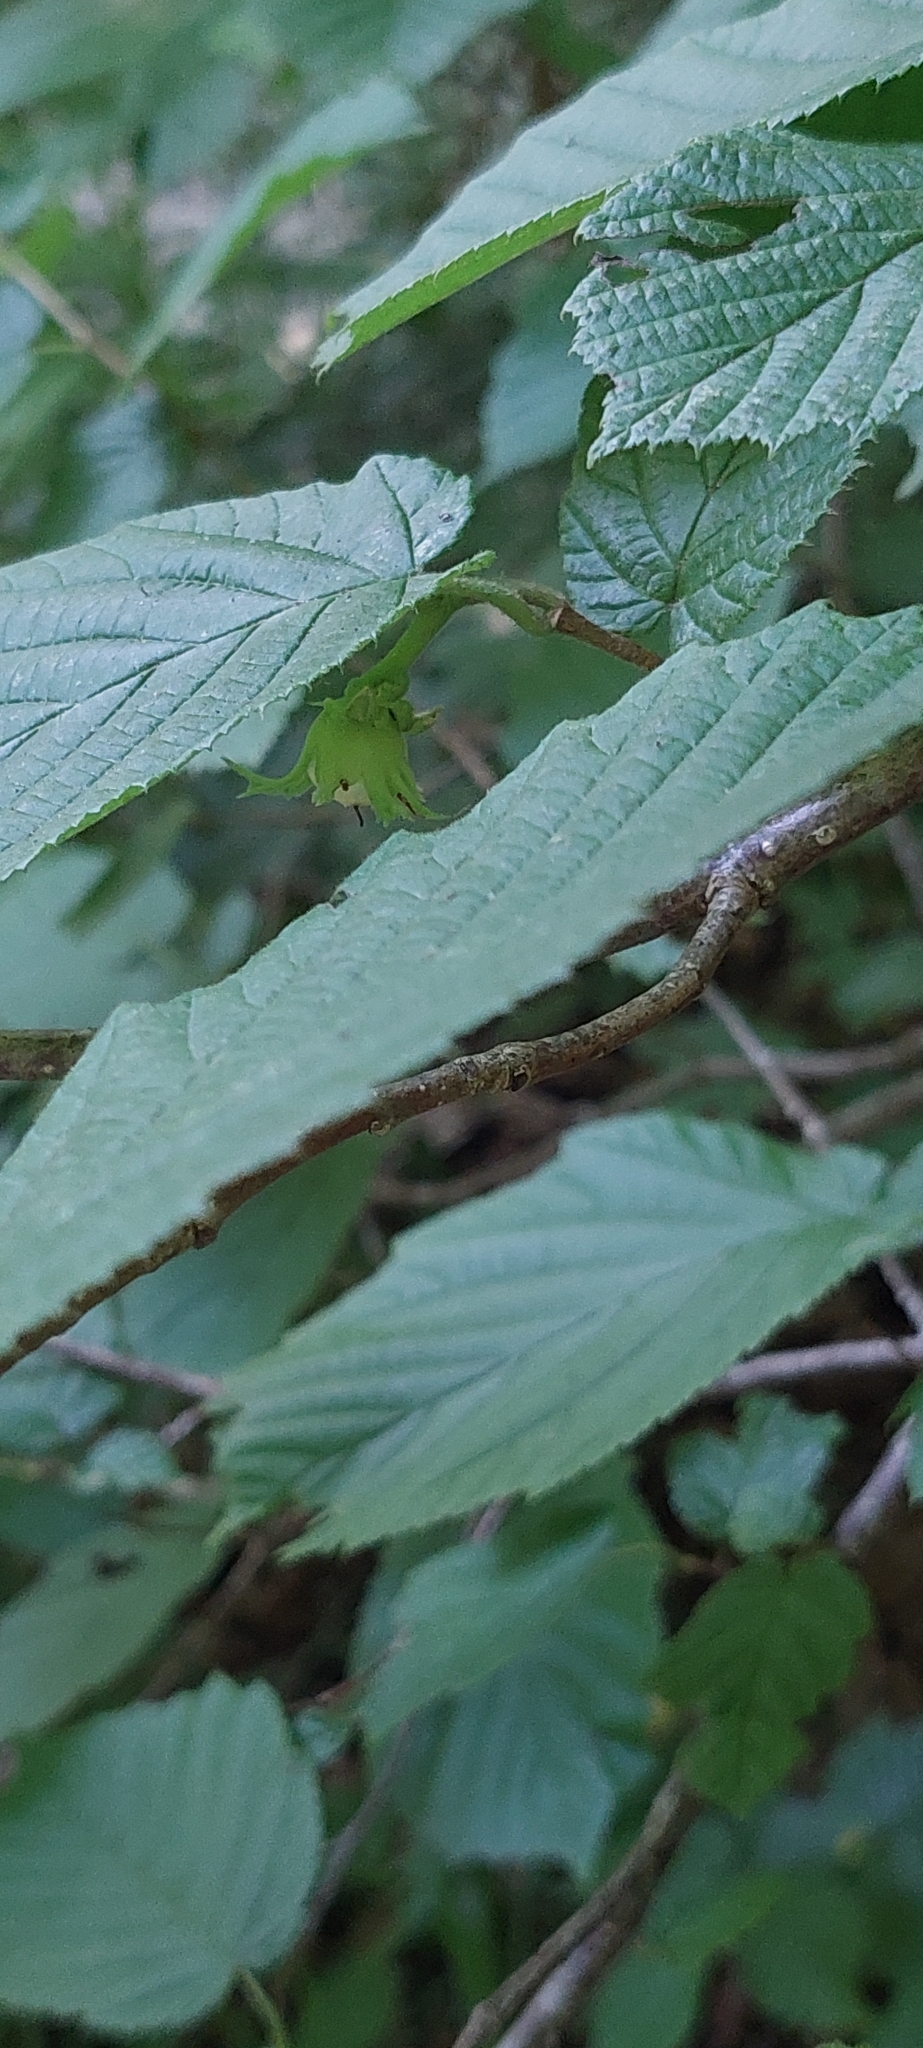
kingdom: Plantae
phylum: Tracheophyta
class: Magnoliopsida
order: Fagales
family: Betulaceae
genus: Corylus
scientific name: Corylus avellana
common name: European hazel
